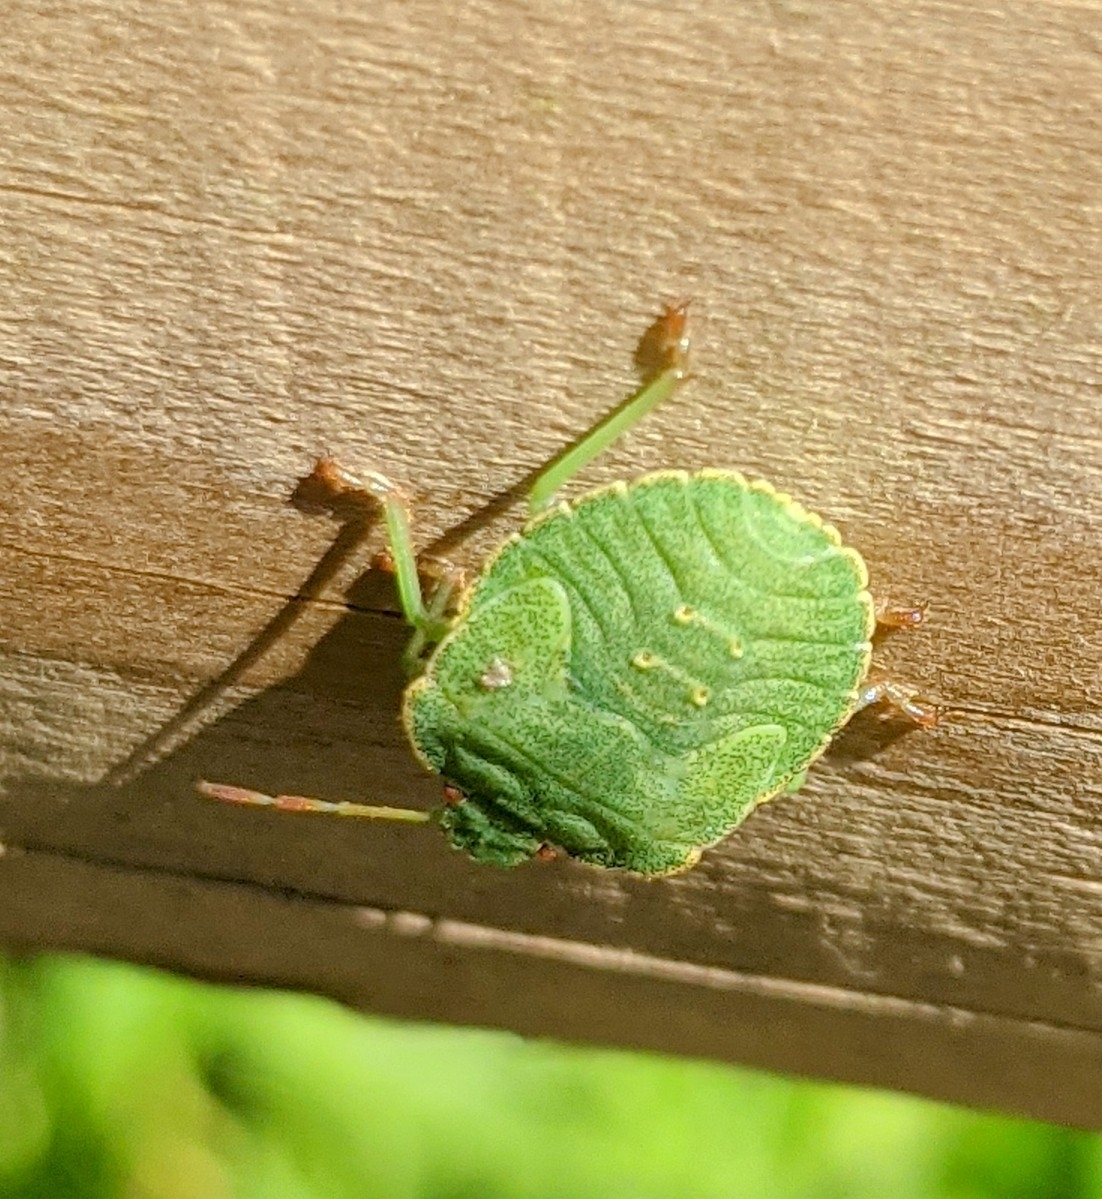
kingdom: Animalia
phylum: Arthropoda
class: Insecta
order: Hemiptera
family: Pentatomidae
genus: Palomena
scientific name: Palomena prasina
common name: Green shieldbug
